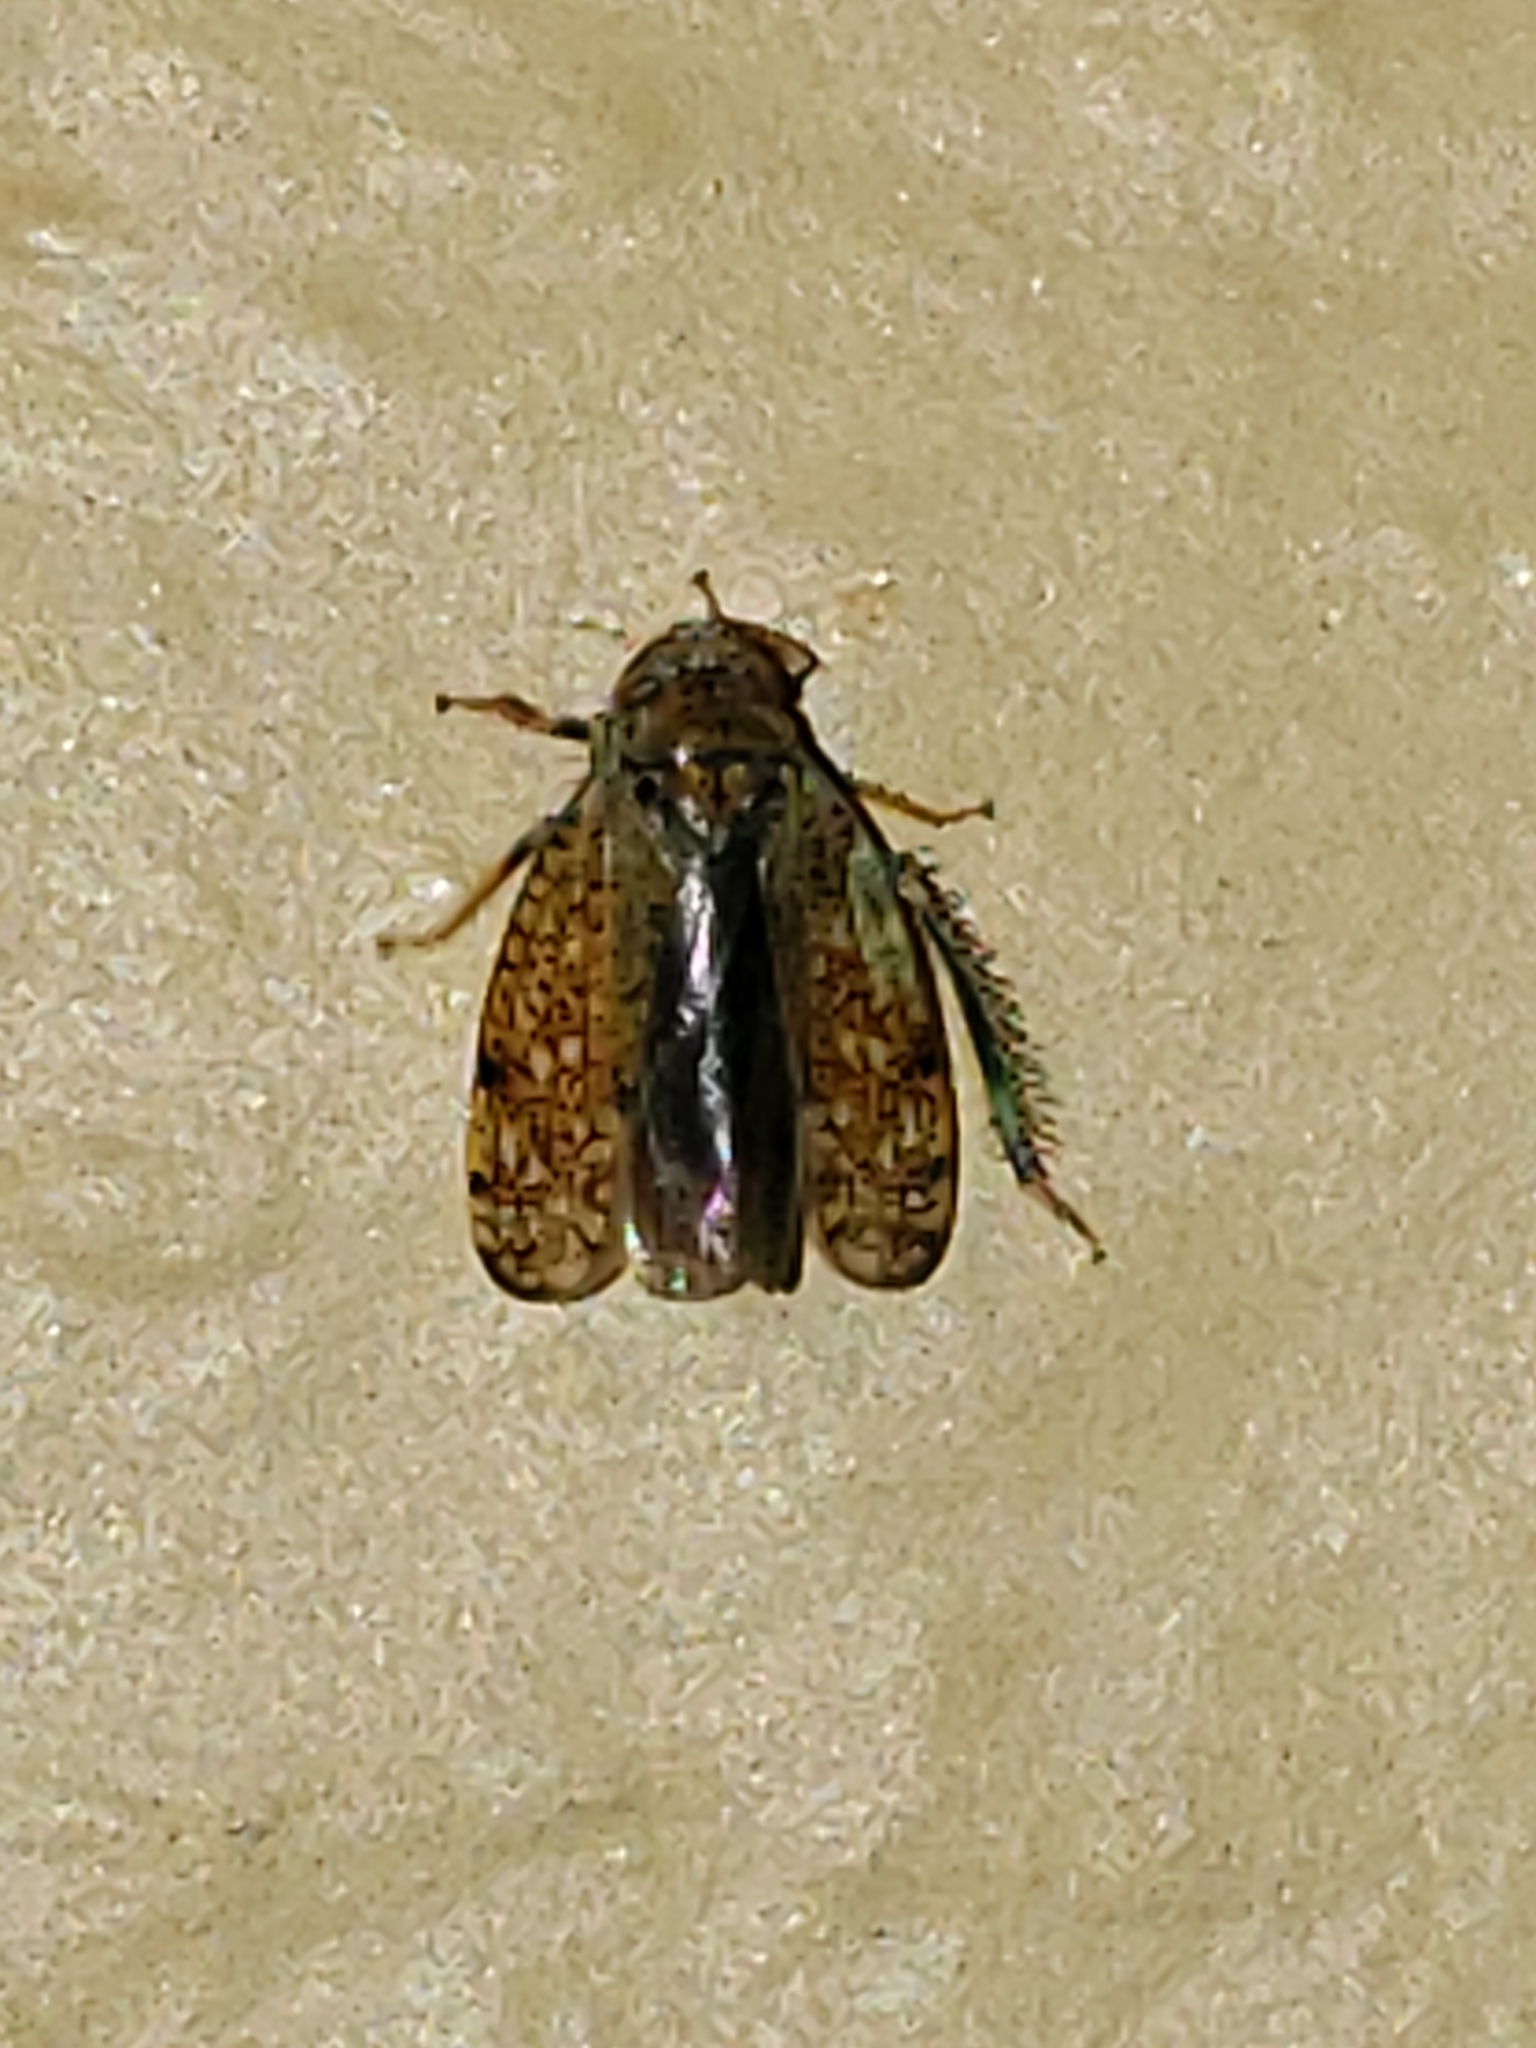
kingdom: Animalia
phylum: Arthropoda
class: Insecta
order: Hemiptera
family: Cicadellidae
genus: Orientus
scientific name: Orientus ishidae
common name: Japanese leafhopper
